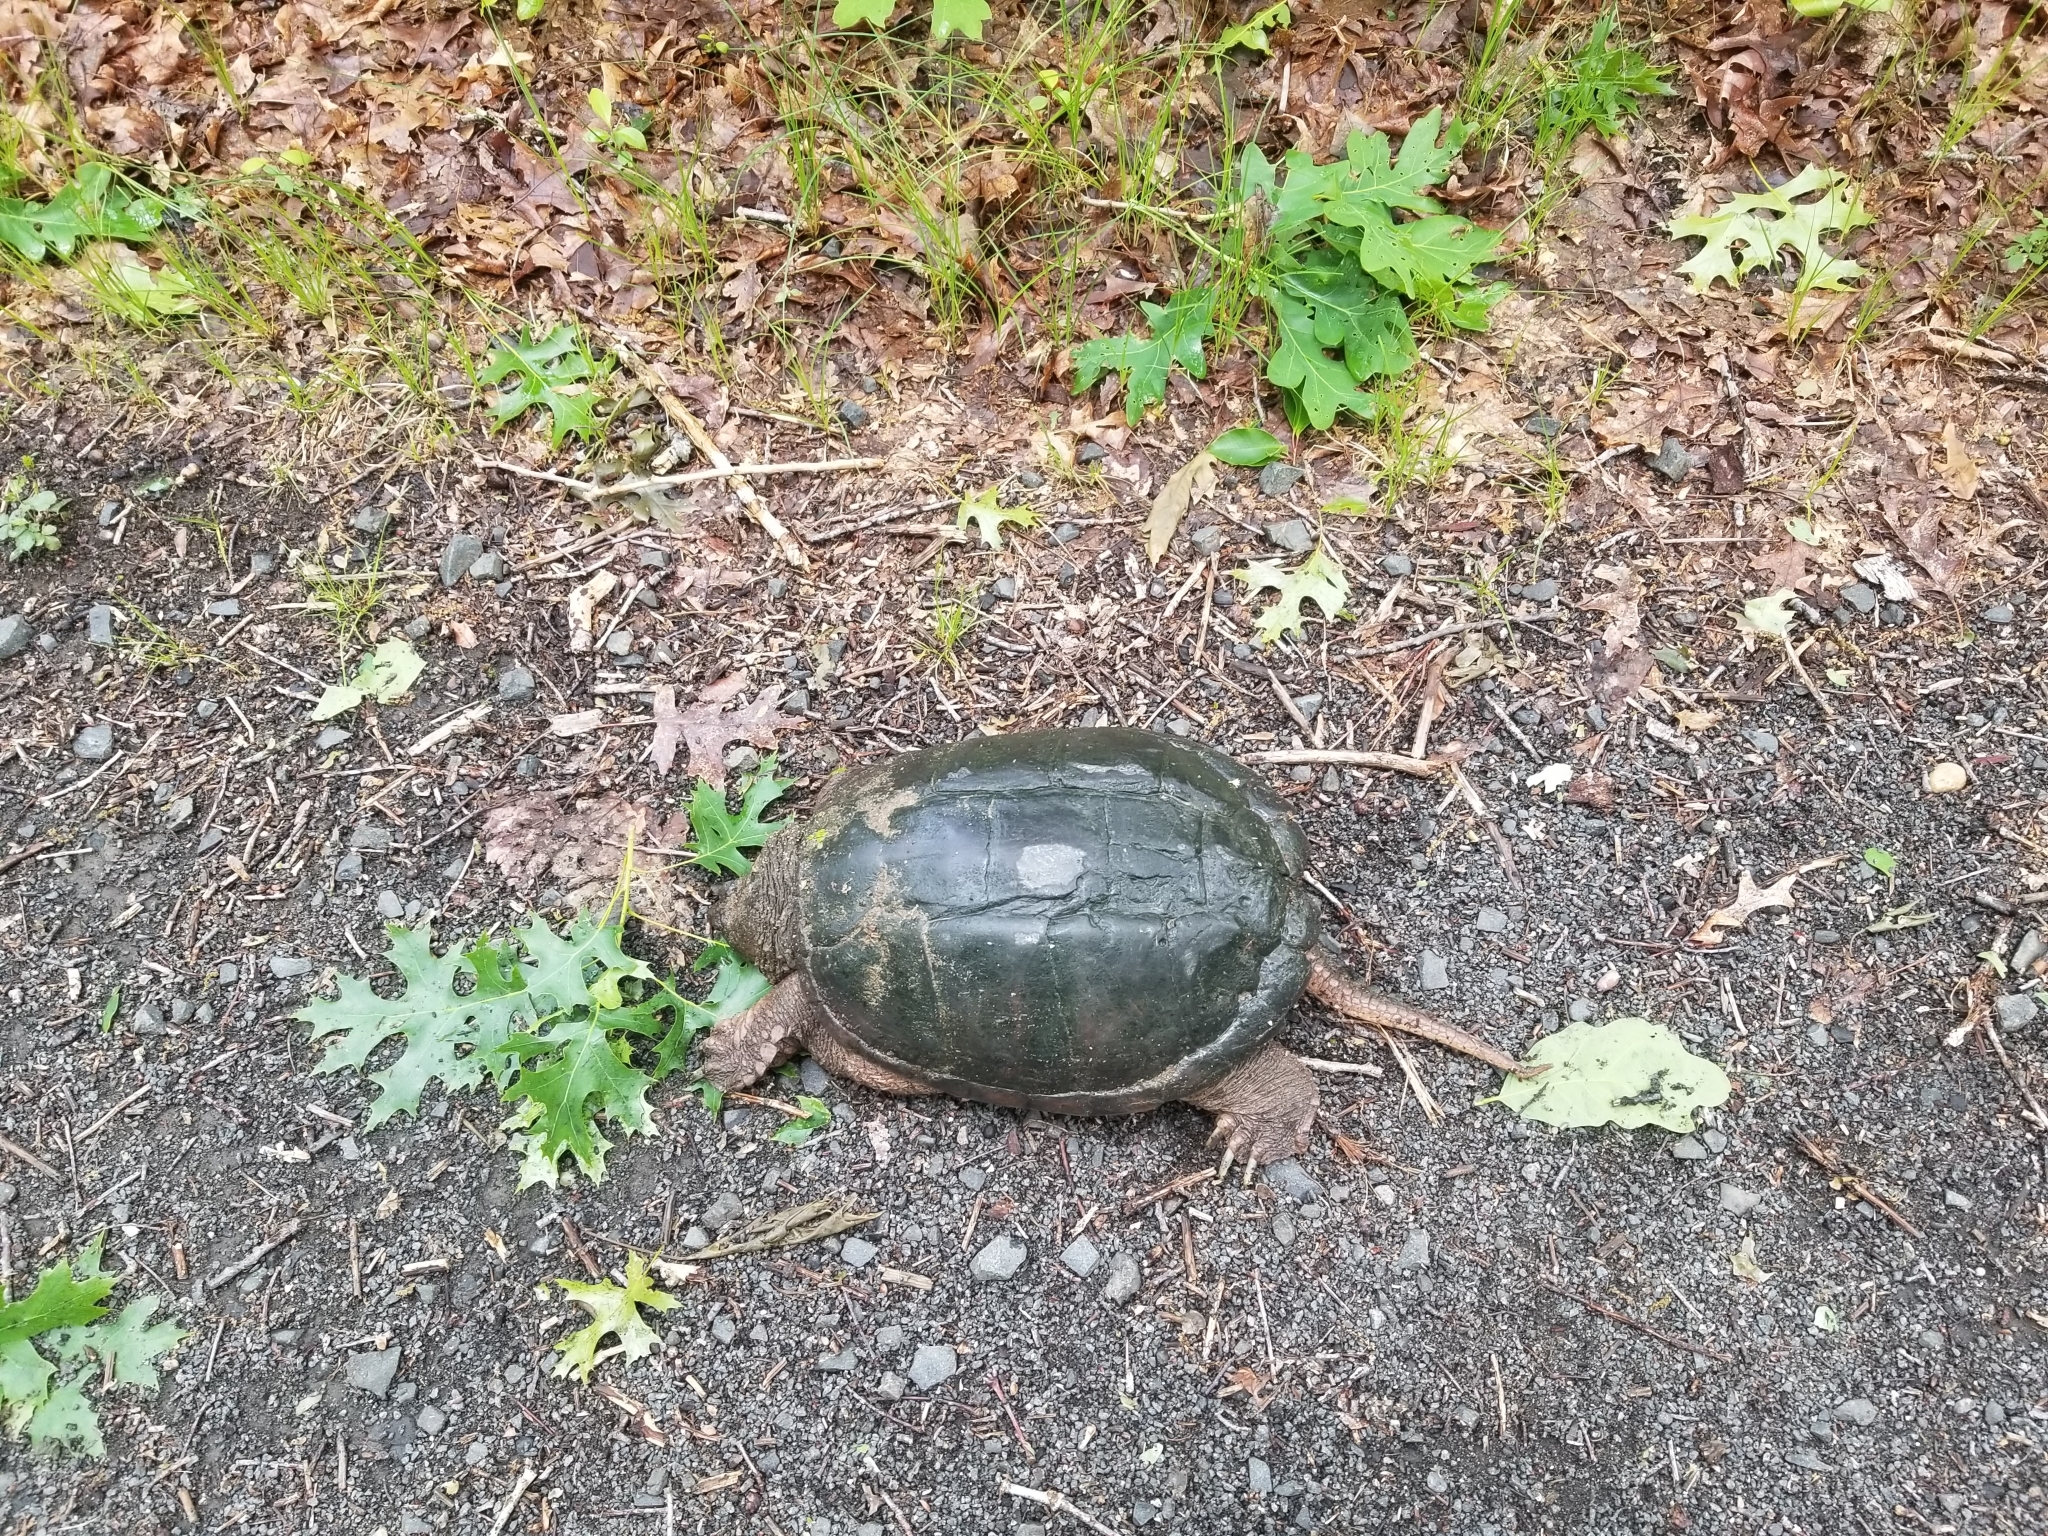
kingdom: Animalia
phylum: Chordata
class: Testudines
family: Chelydridae
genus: Chelydra
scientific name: Chelydra serpentina
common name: Common snapping turtle
